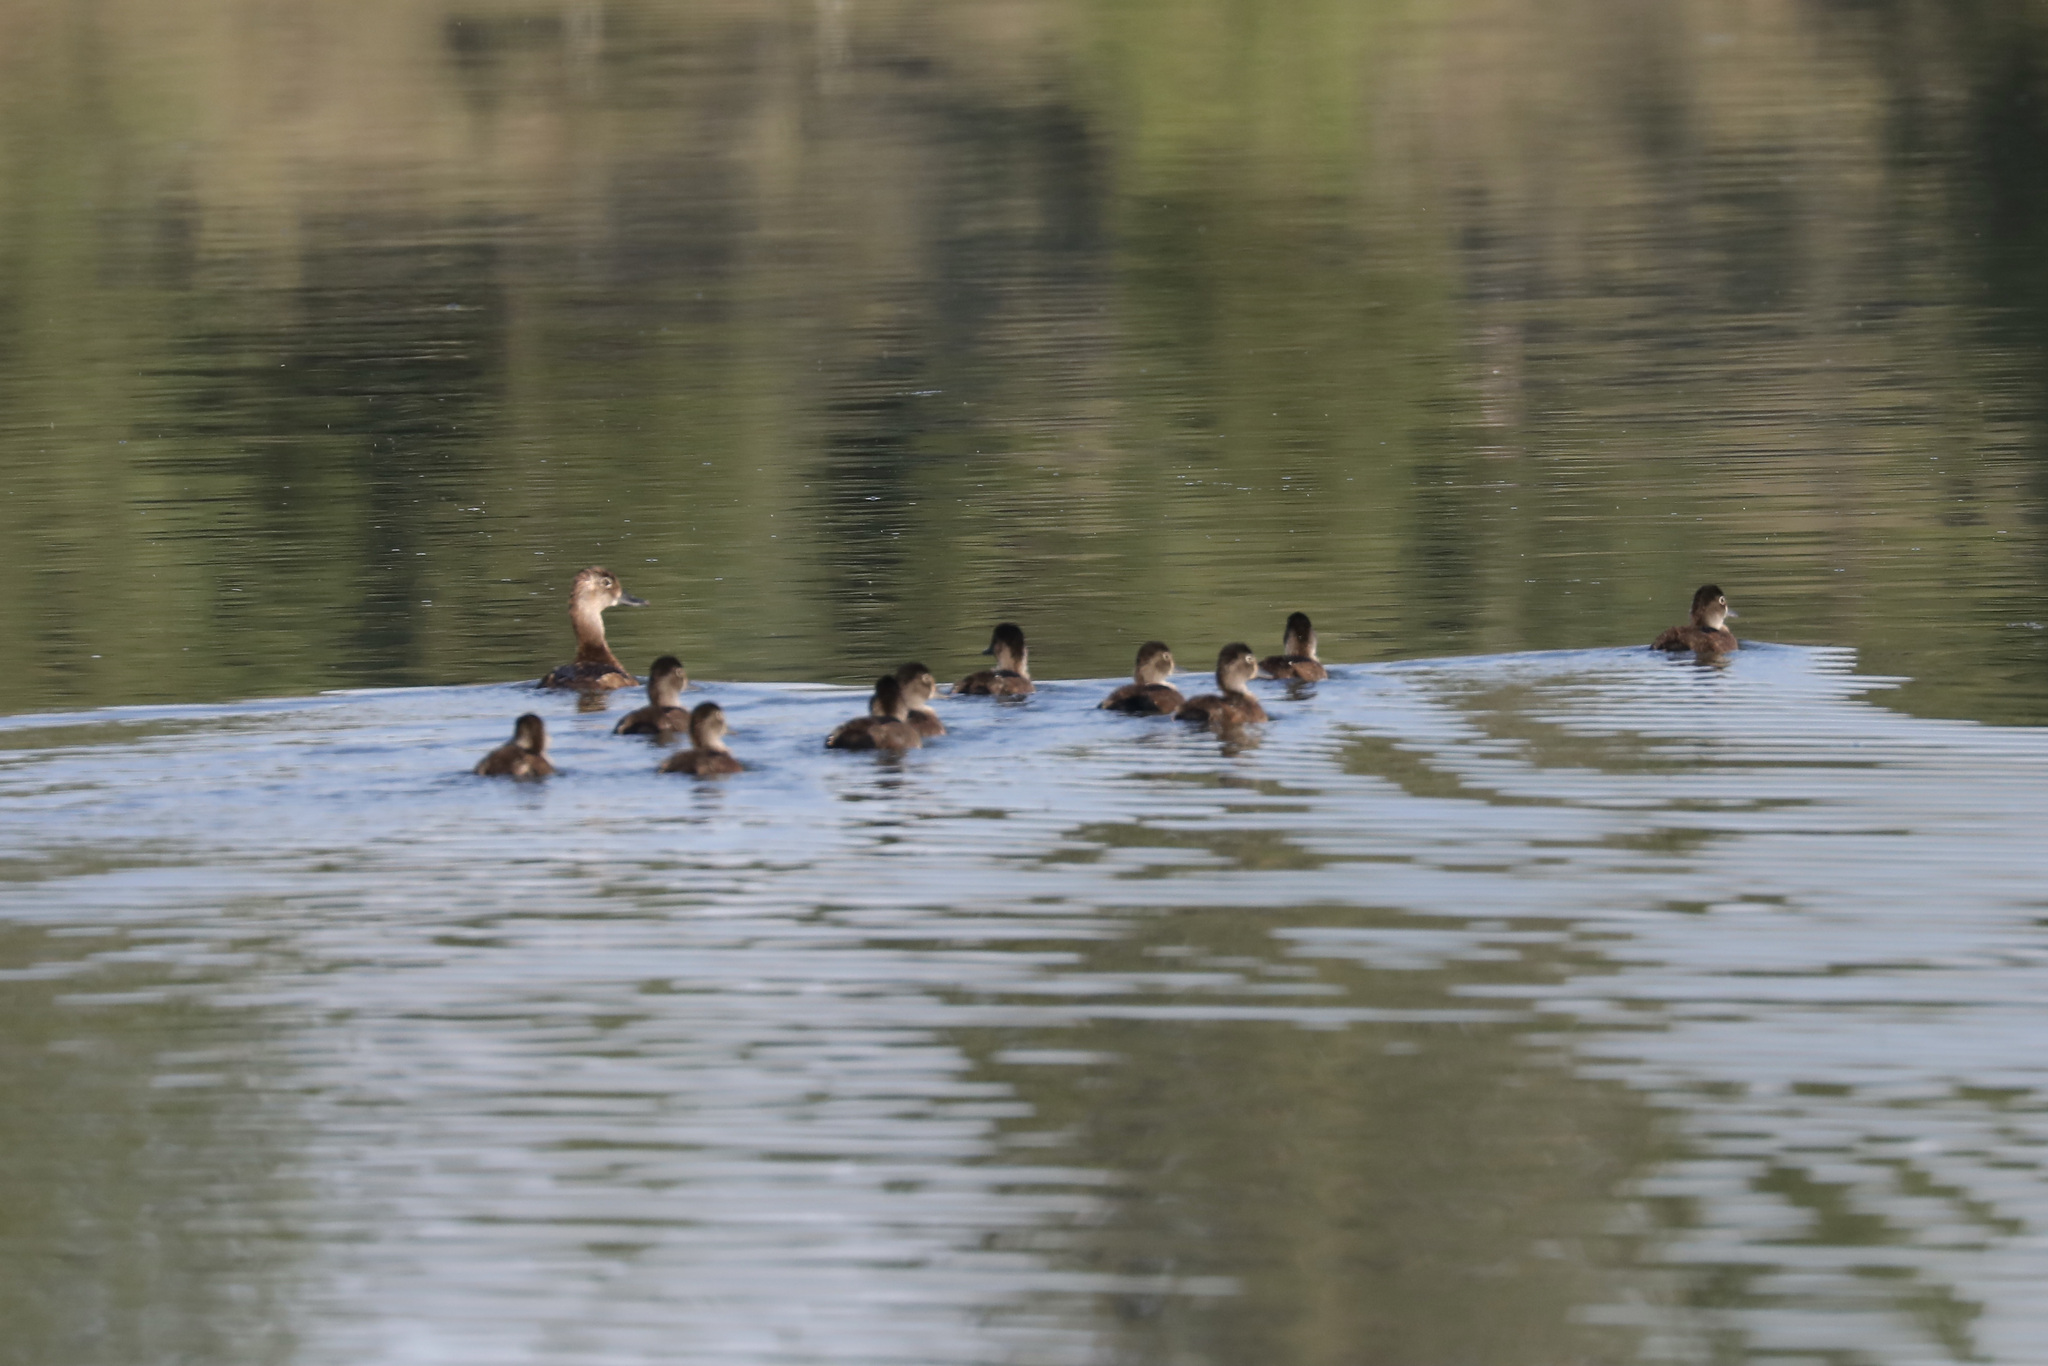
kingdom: Animalia
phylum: Chordata
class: Aves
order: Anseriformes
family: Anatidae
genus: Aythya
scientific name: Aythya collaris
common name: Ring-necked duck
